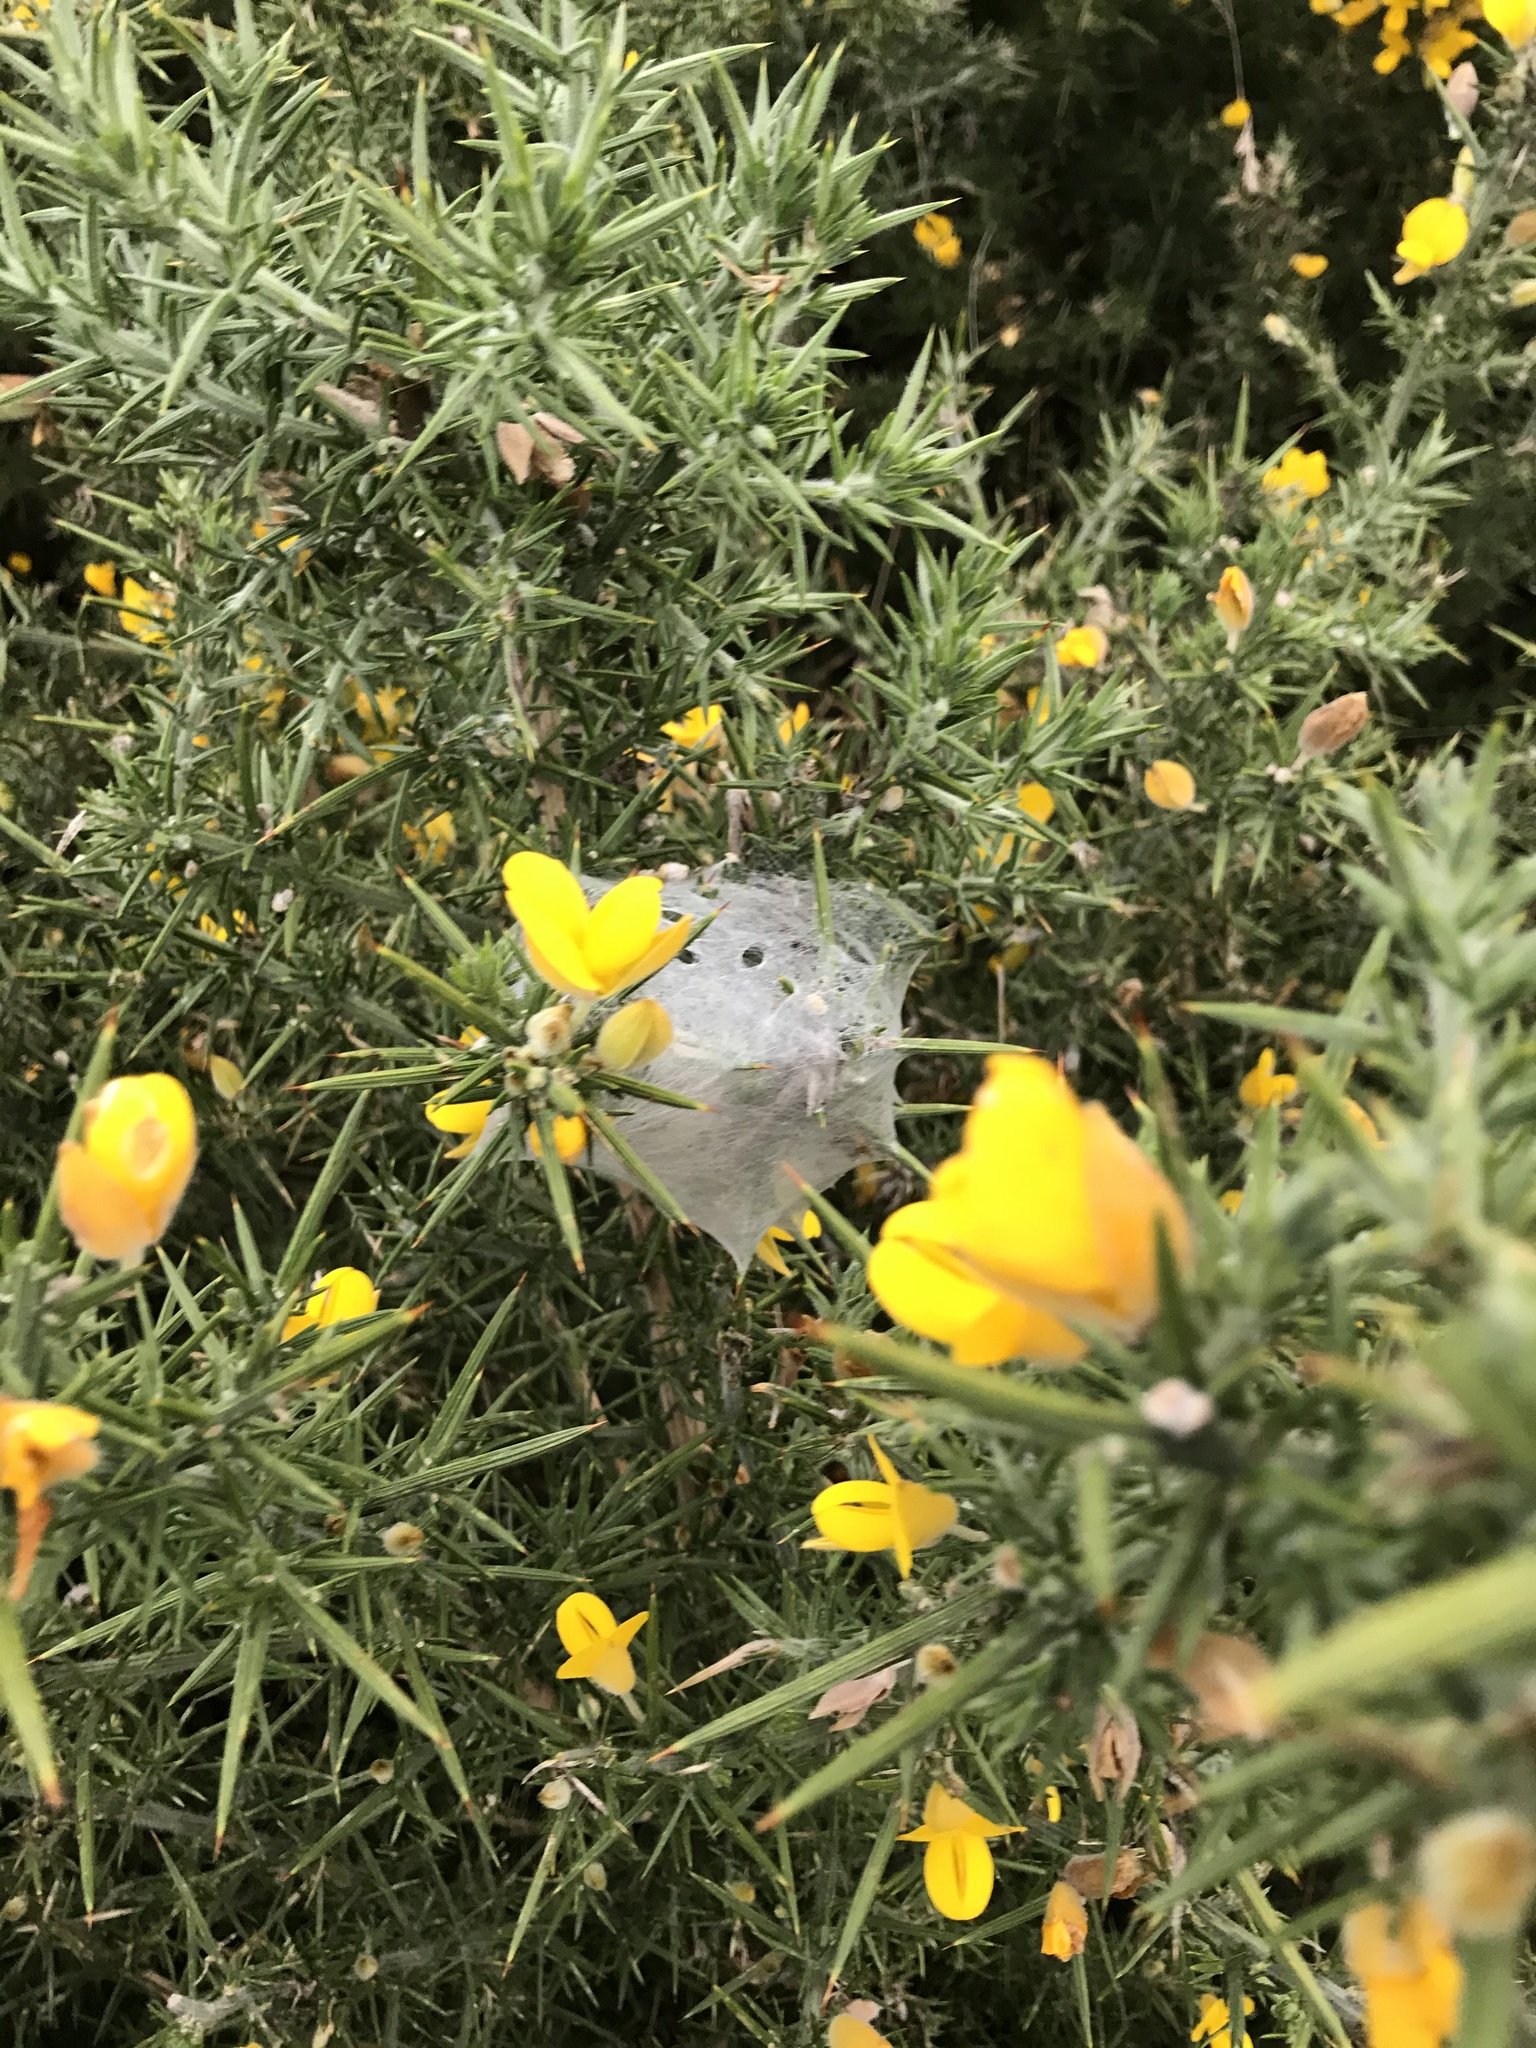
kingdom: Animalia
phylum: Arthropoda
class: Arachnida
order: Araneae
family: Pisauridae
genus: Dolomedes
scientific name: Dolomedes minor
